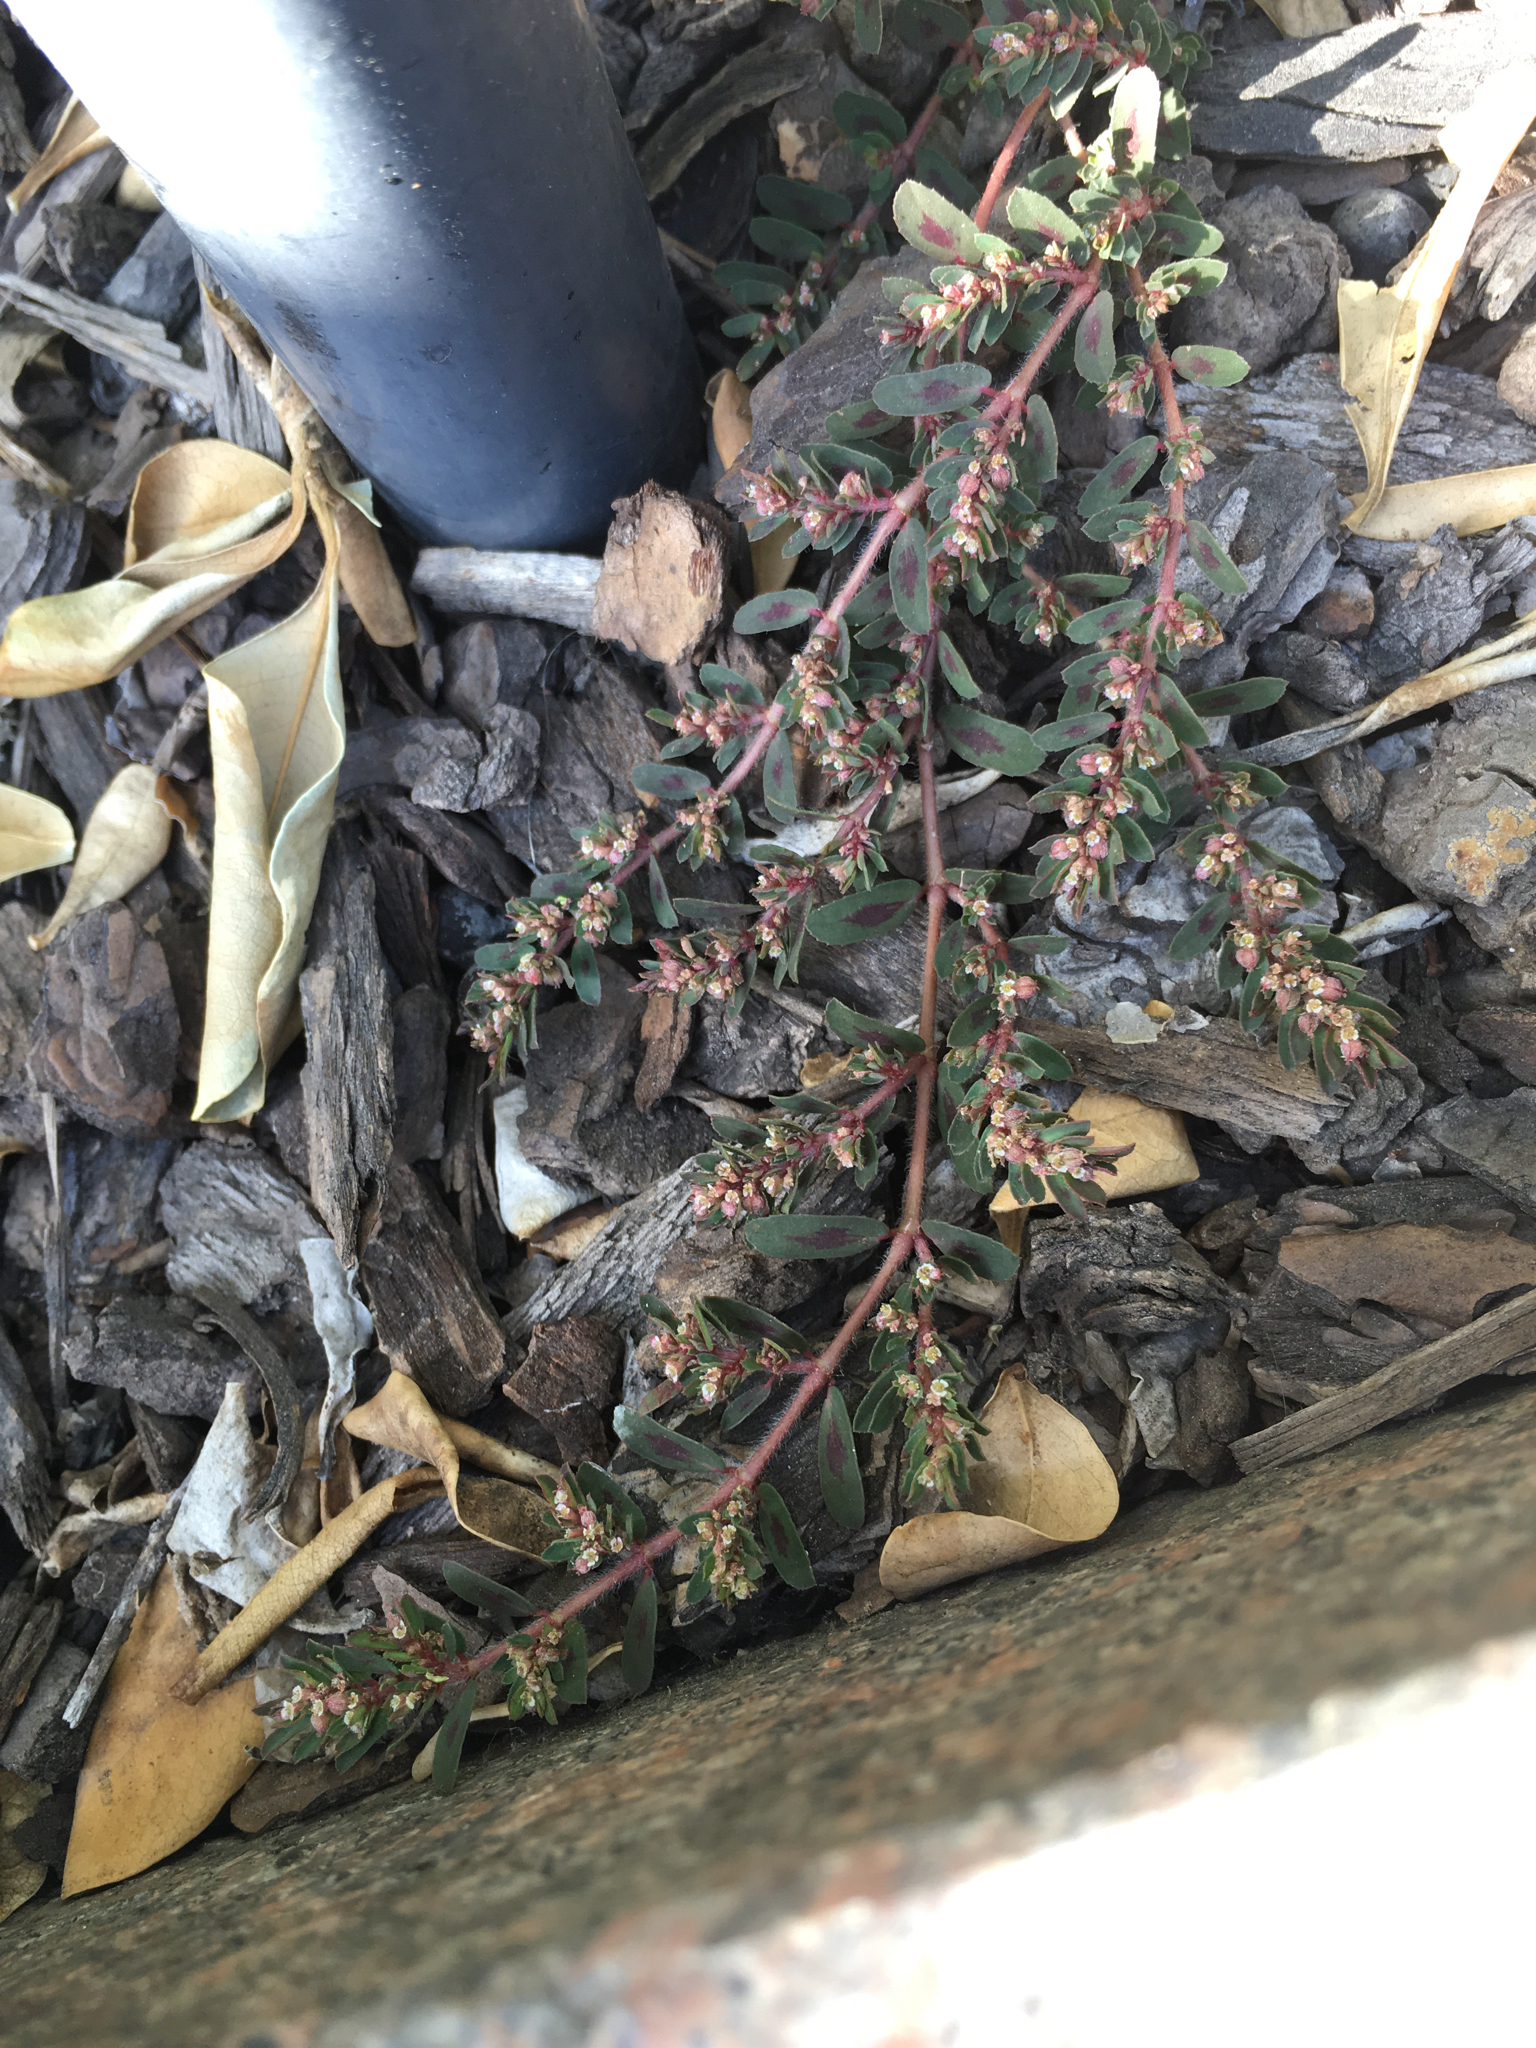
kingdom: Plantae
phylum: Tracheophyta
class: Magnoliopsida
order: Malpighiales
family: Euphorbiaceae
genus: Euphorbia
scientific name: Euphorbia maculata
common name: Spotted spurge
